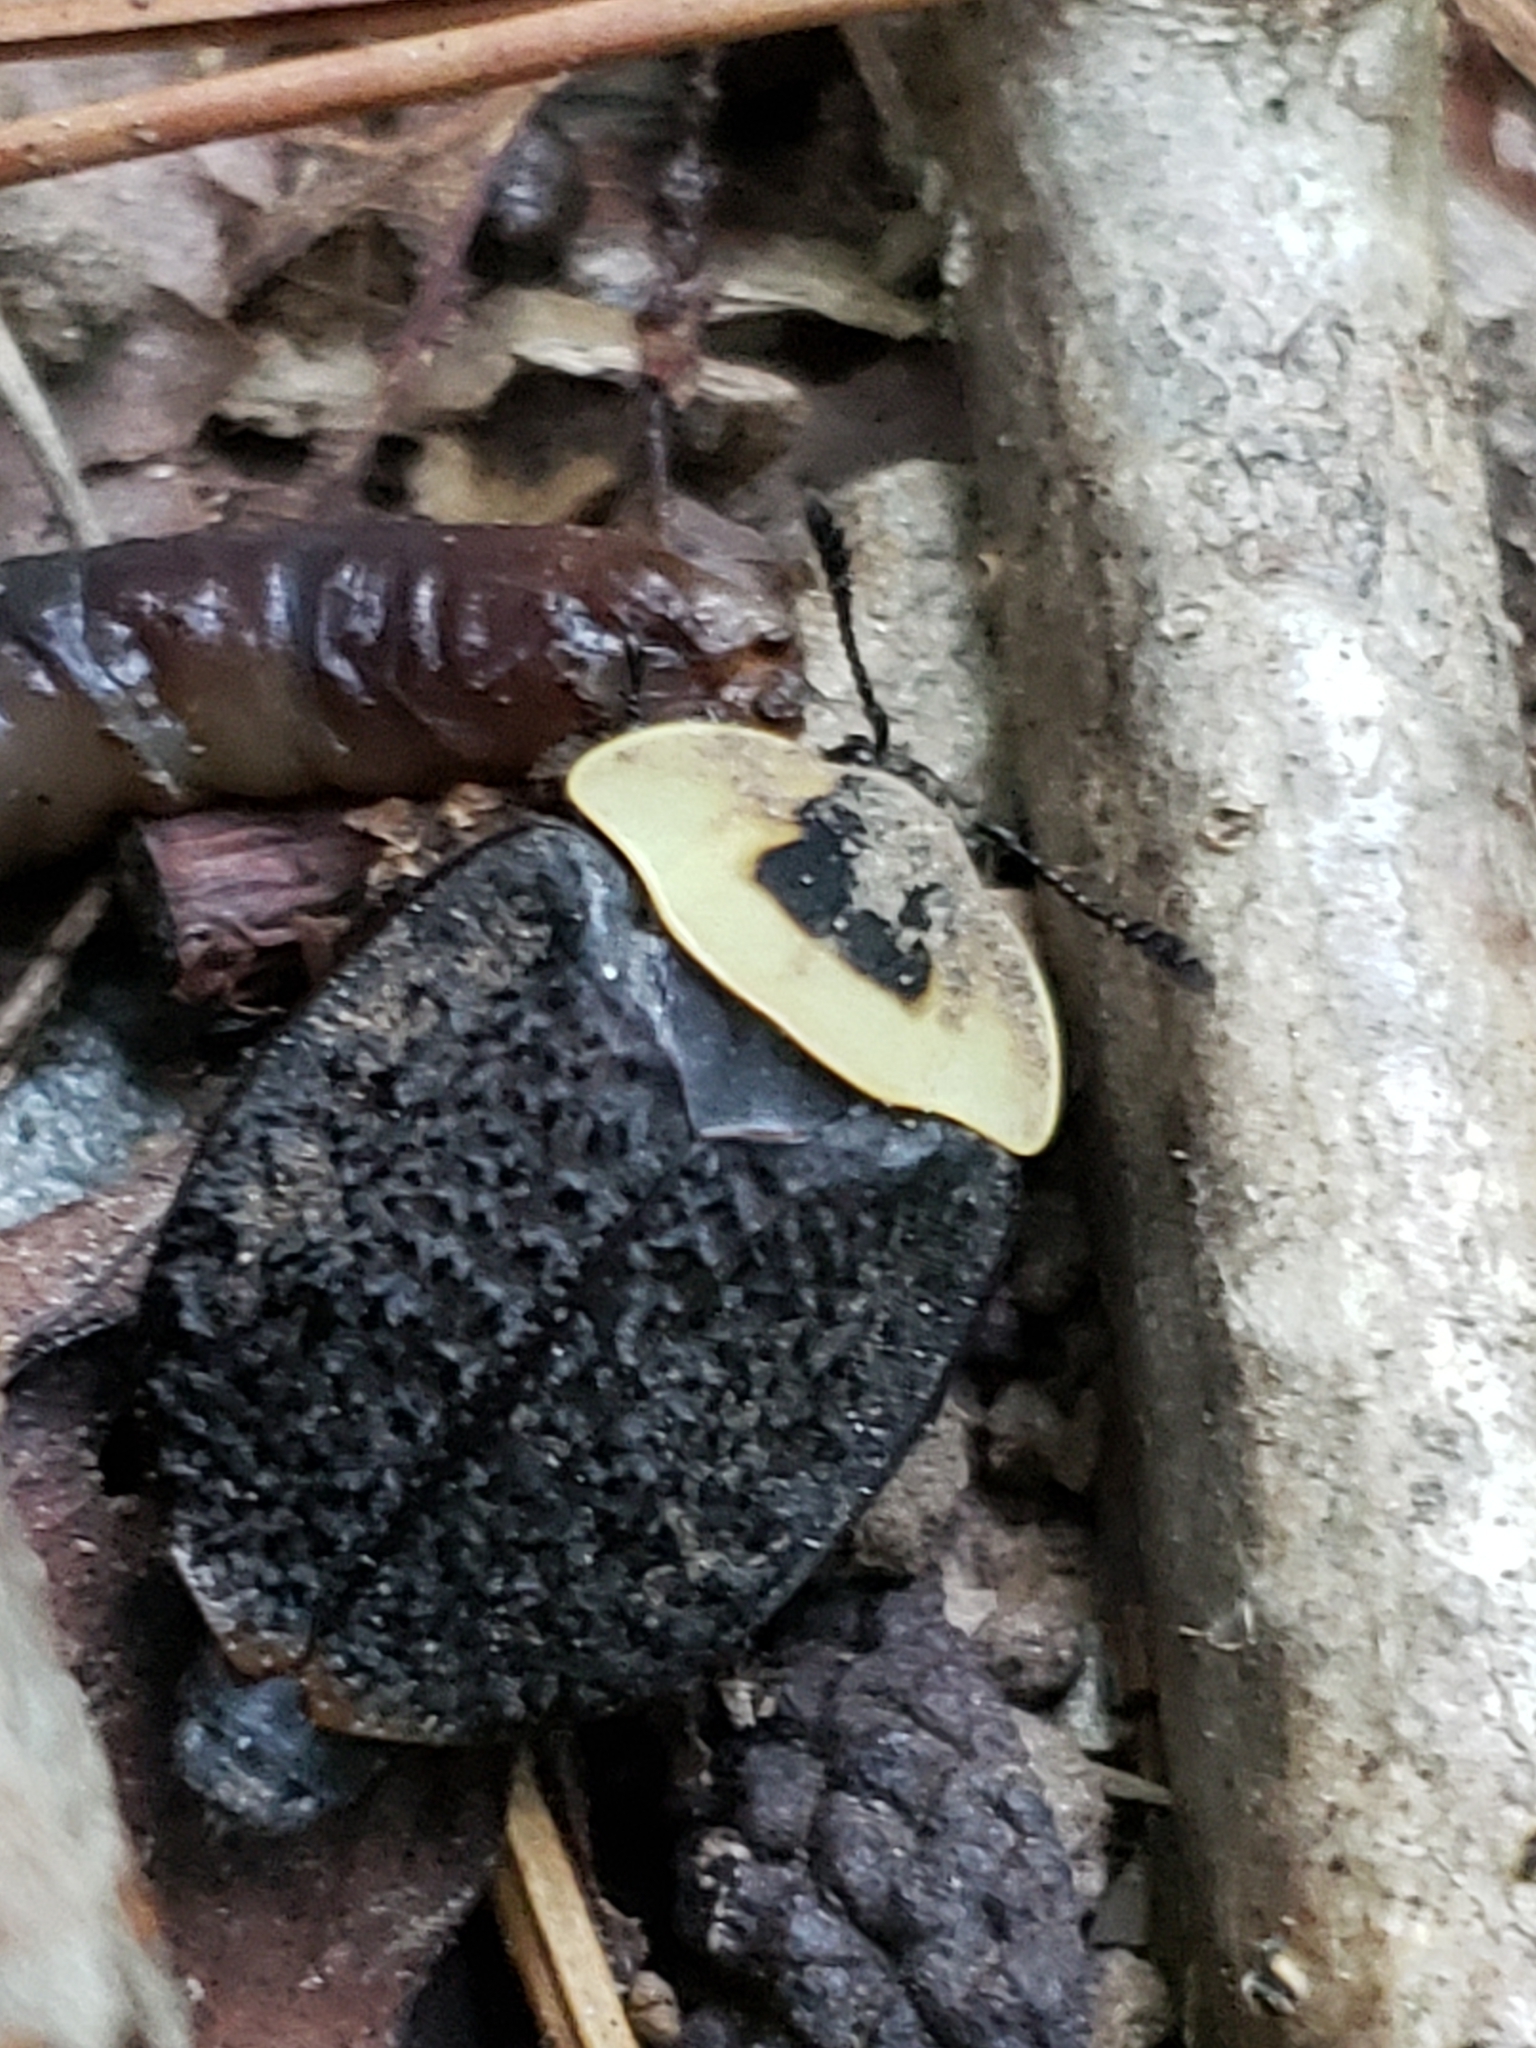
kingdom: Animalia
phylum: Arthropoda
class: Insecta
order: Coleoptera
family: Staphylinidae
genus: Necrophila
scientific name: Necrophila americana
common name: American carrion beetle
